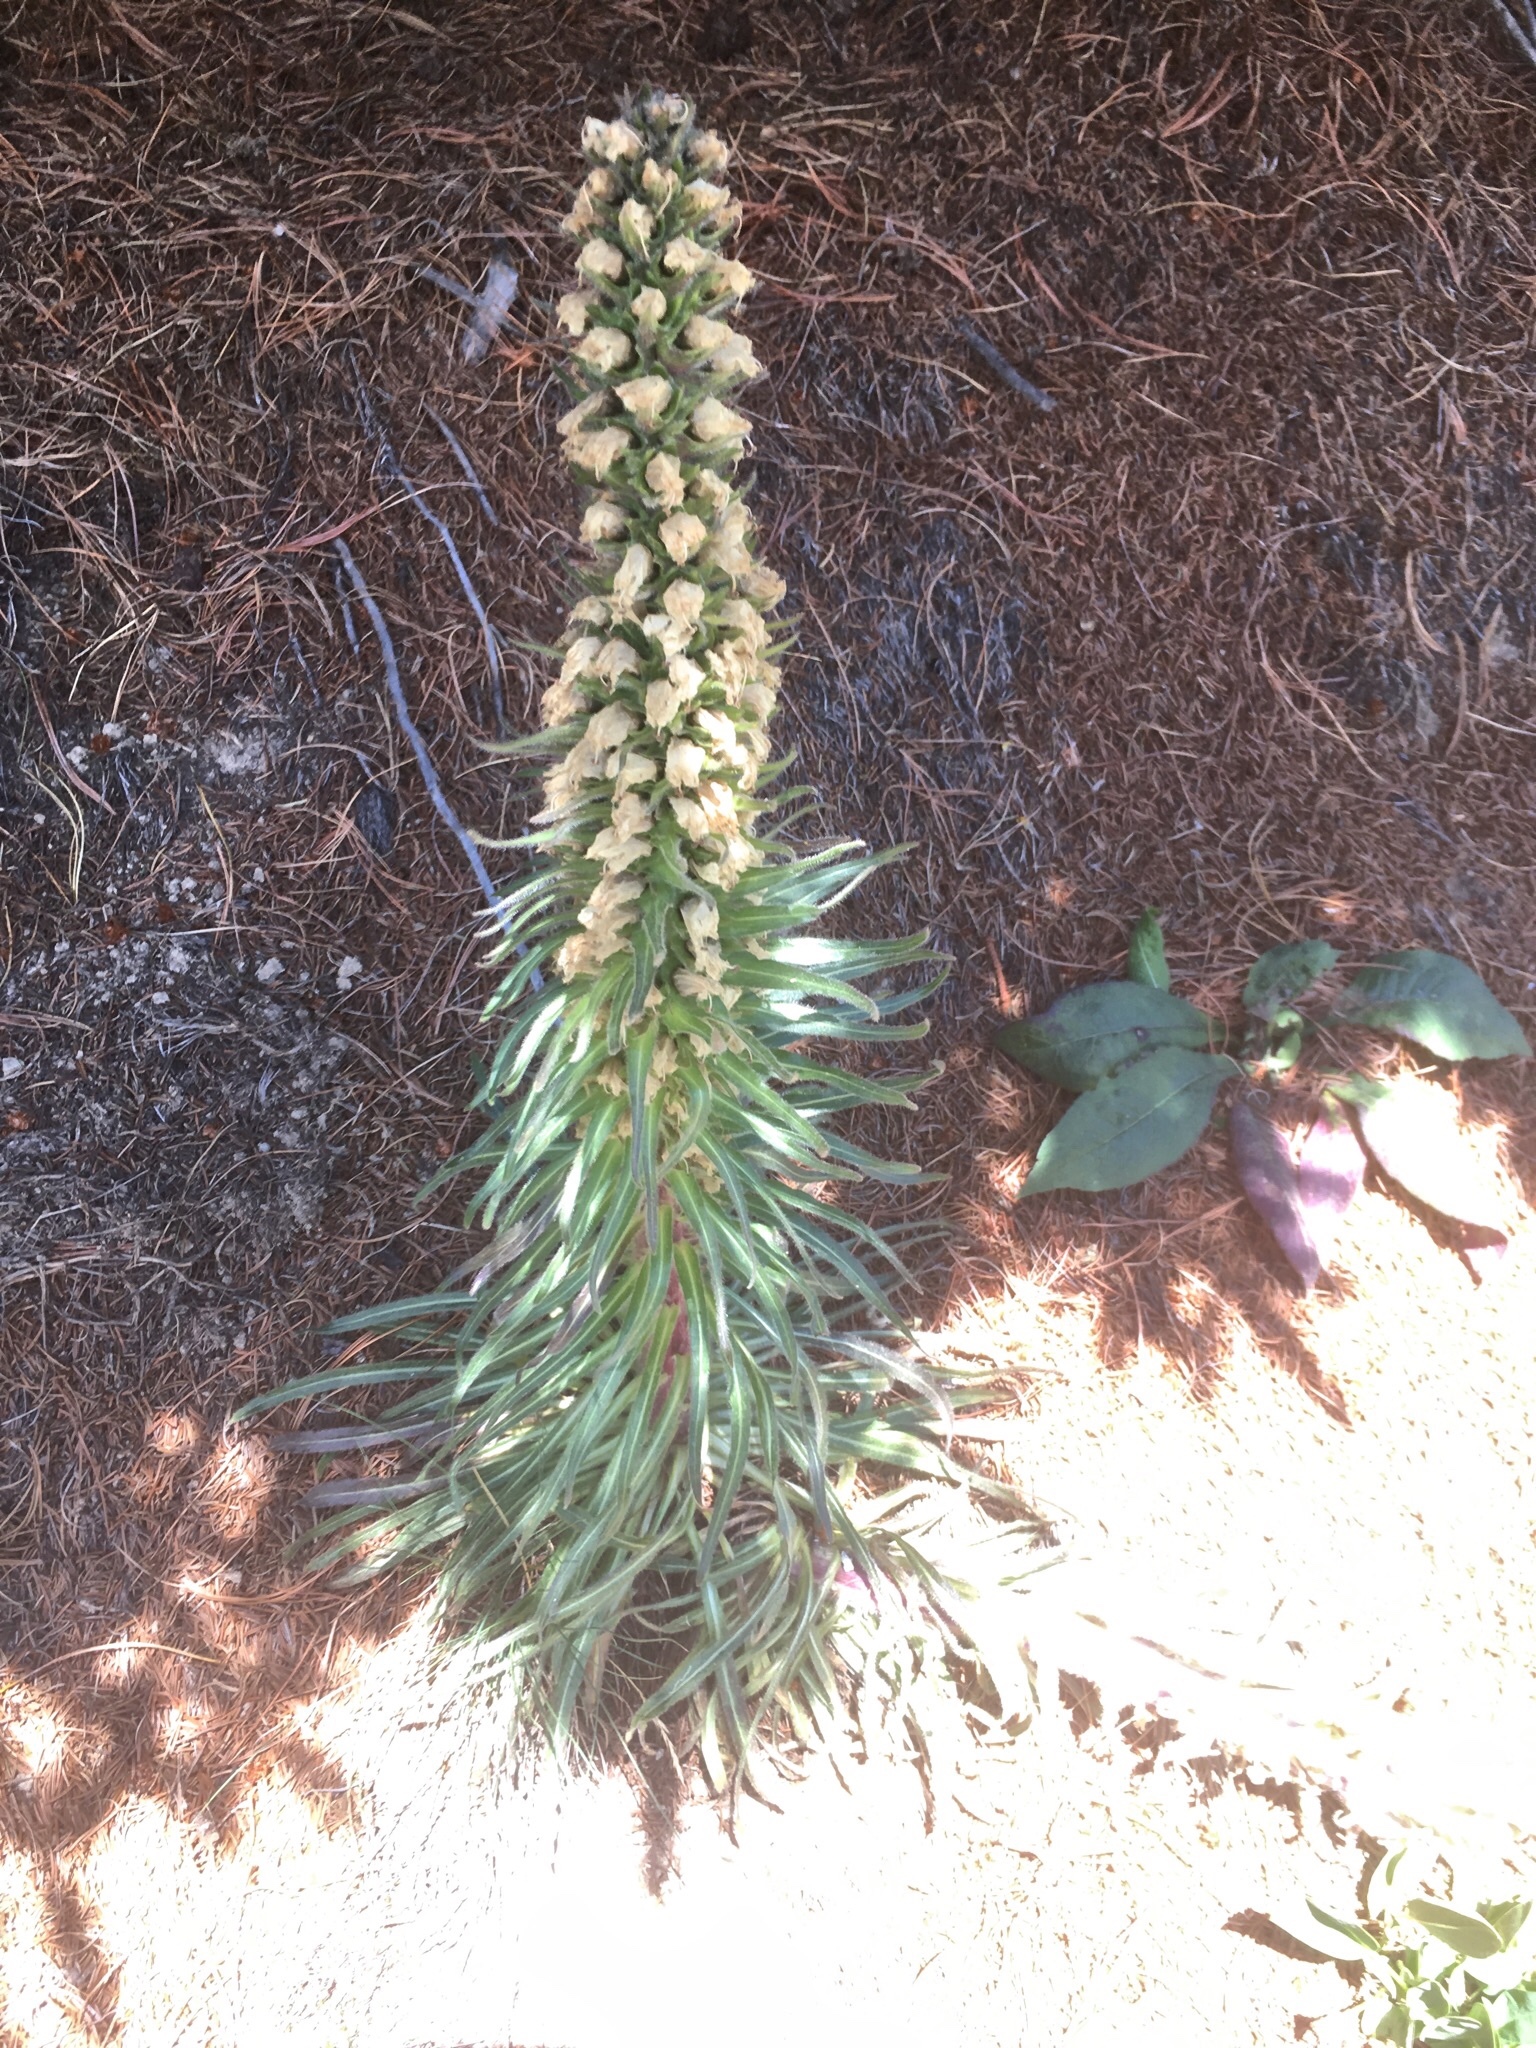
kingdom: Plantae
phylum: Tracheophyta
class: Magnoliopsida
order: Asterales
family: Campanulaceae
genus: Campanula
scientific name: Campanula thyrsoides
